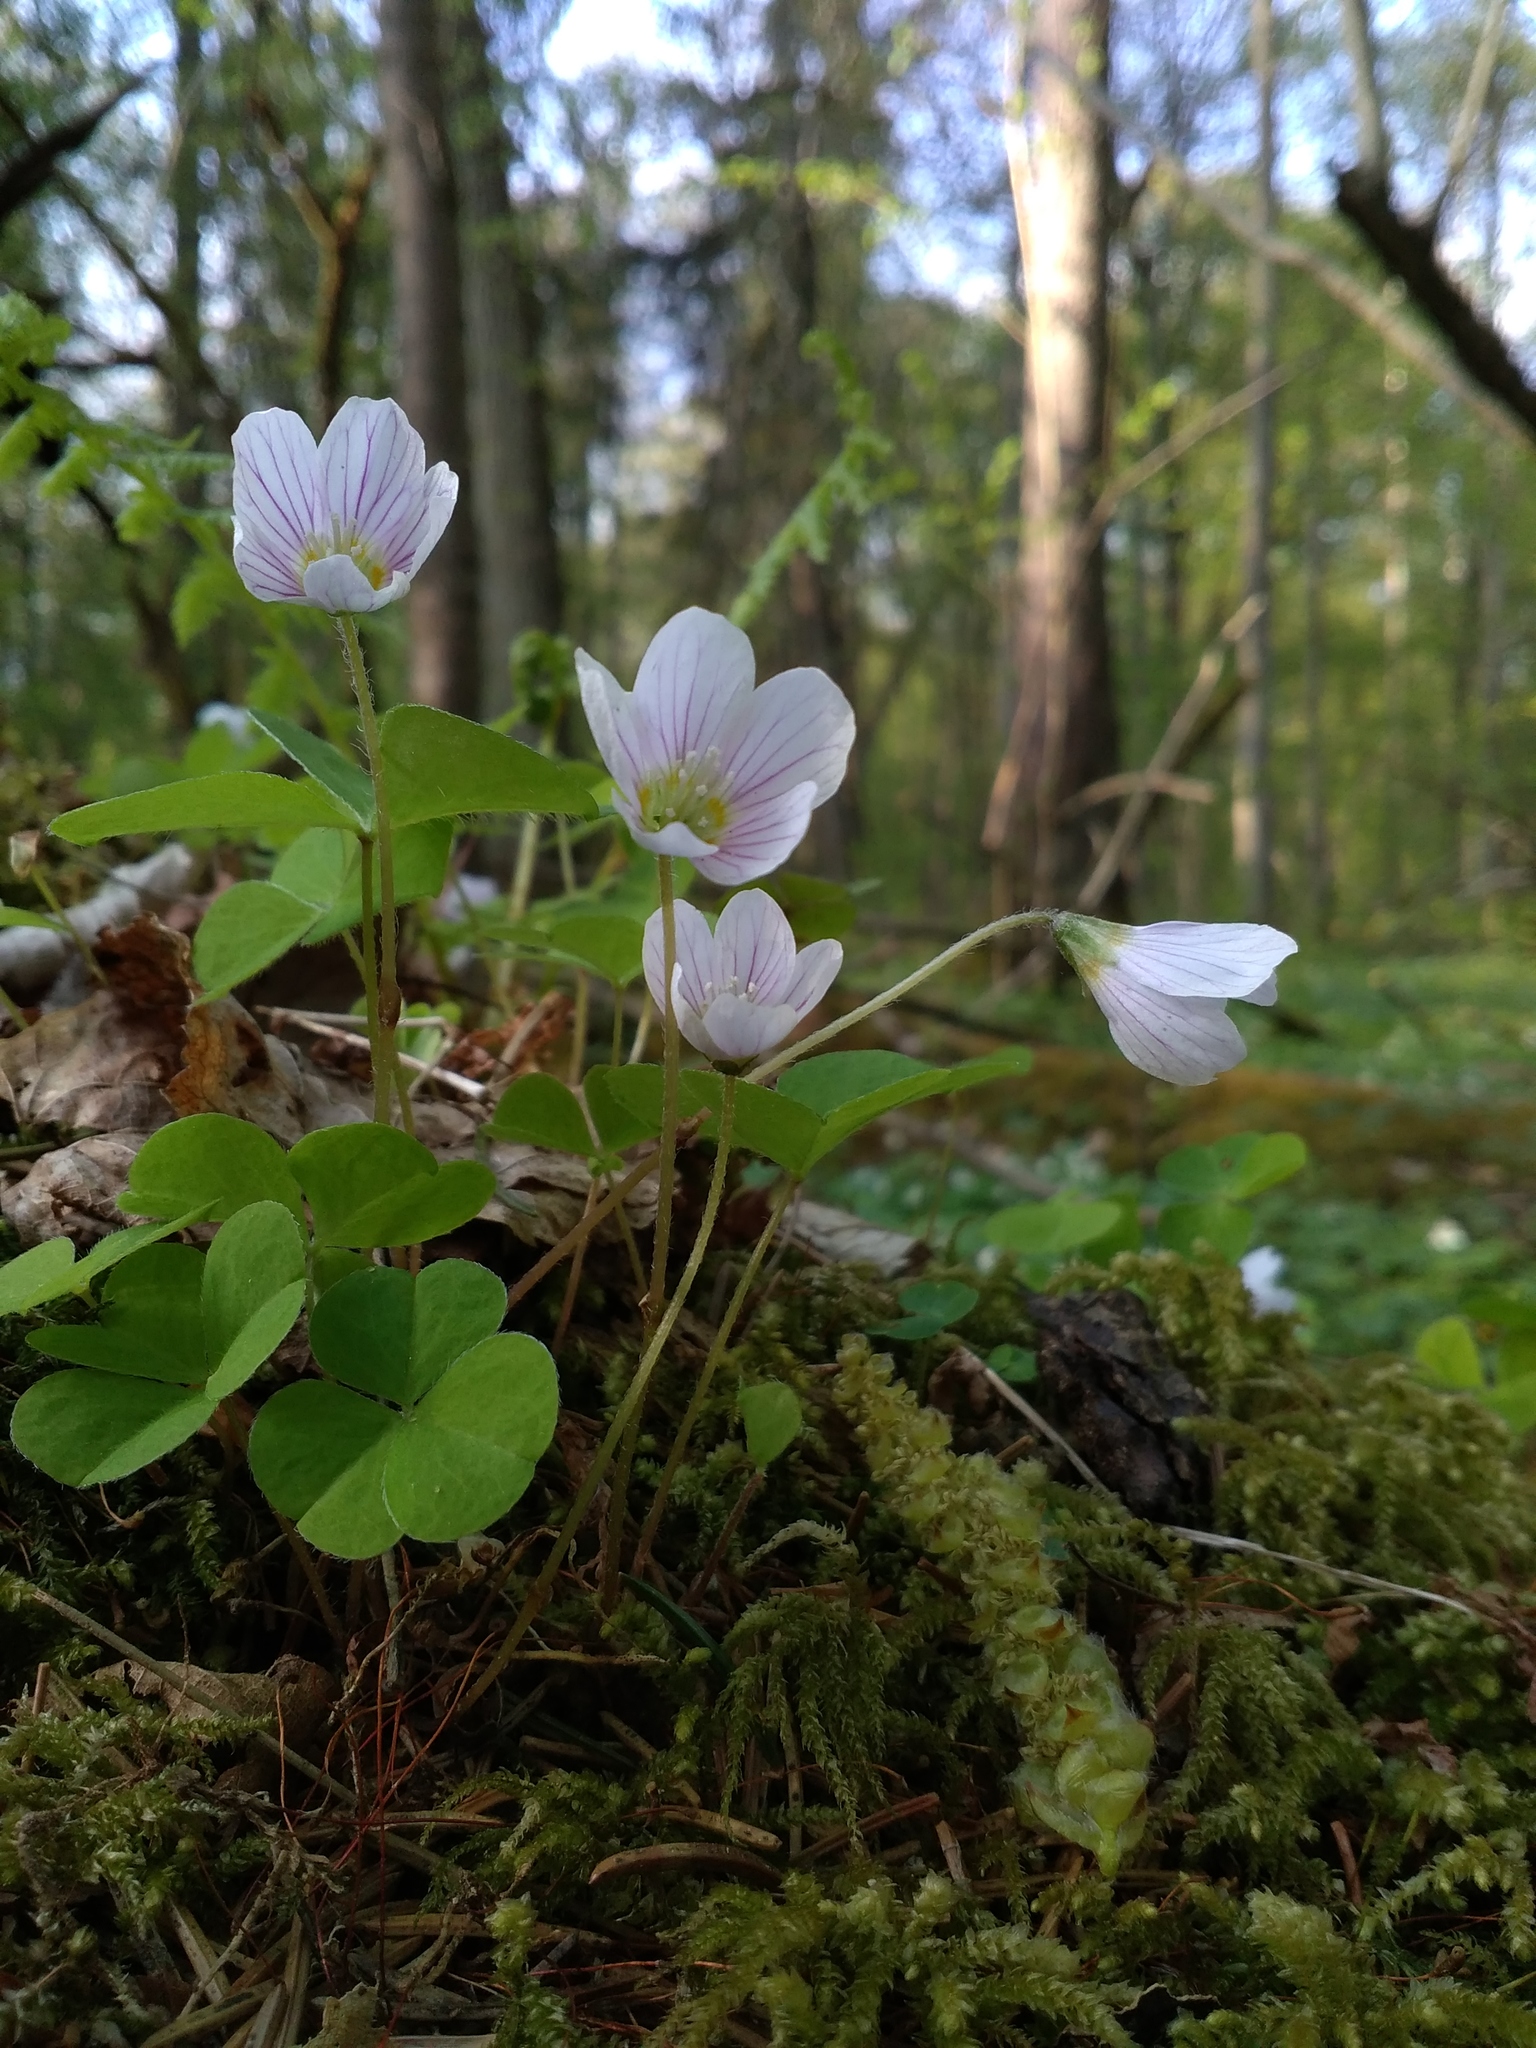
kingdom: Plantae
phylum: Tracheophyta
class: Magnoliopsida
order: Oxalidales
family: Oxalidaceae
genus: Oxalis
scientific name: Oxalis acetosella
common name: Wood-sorrel
